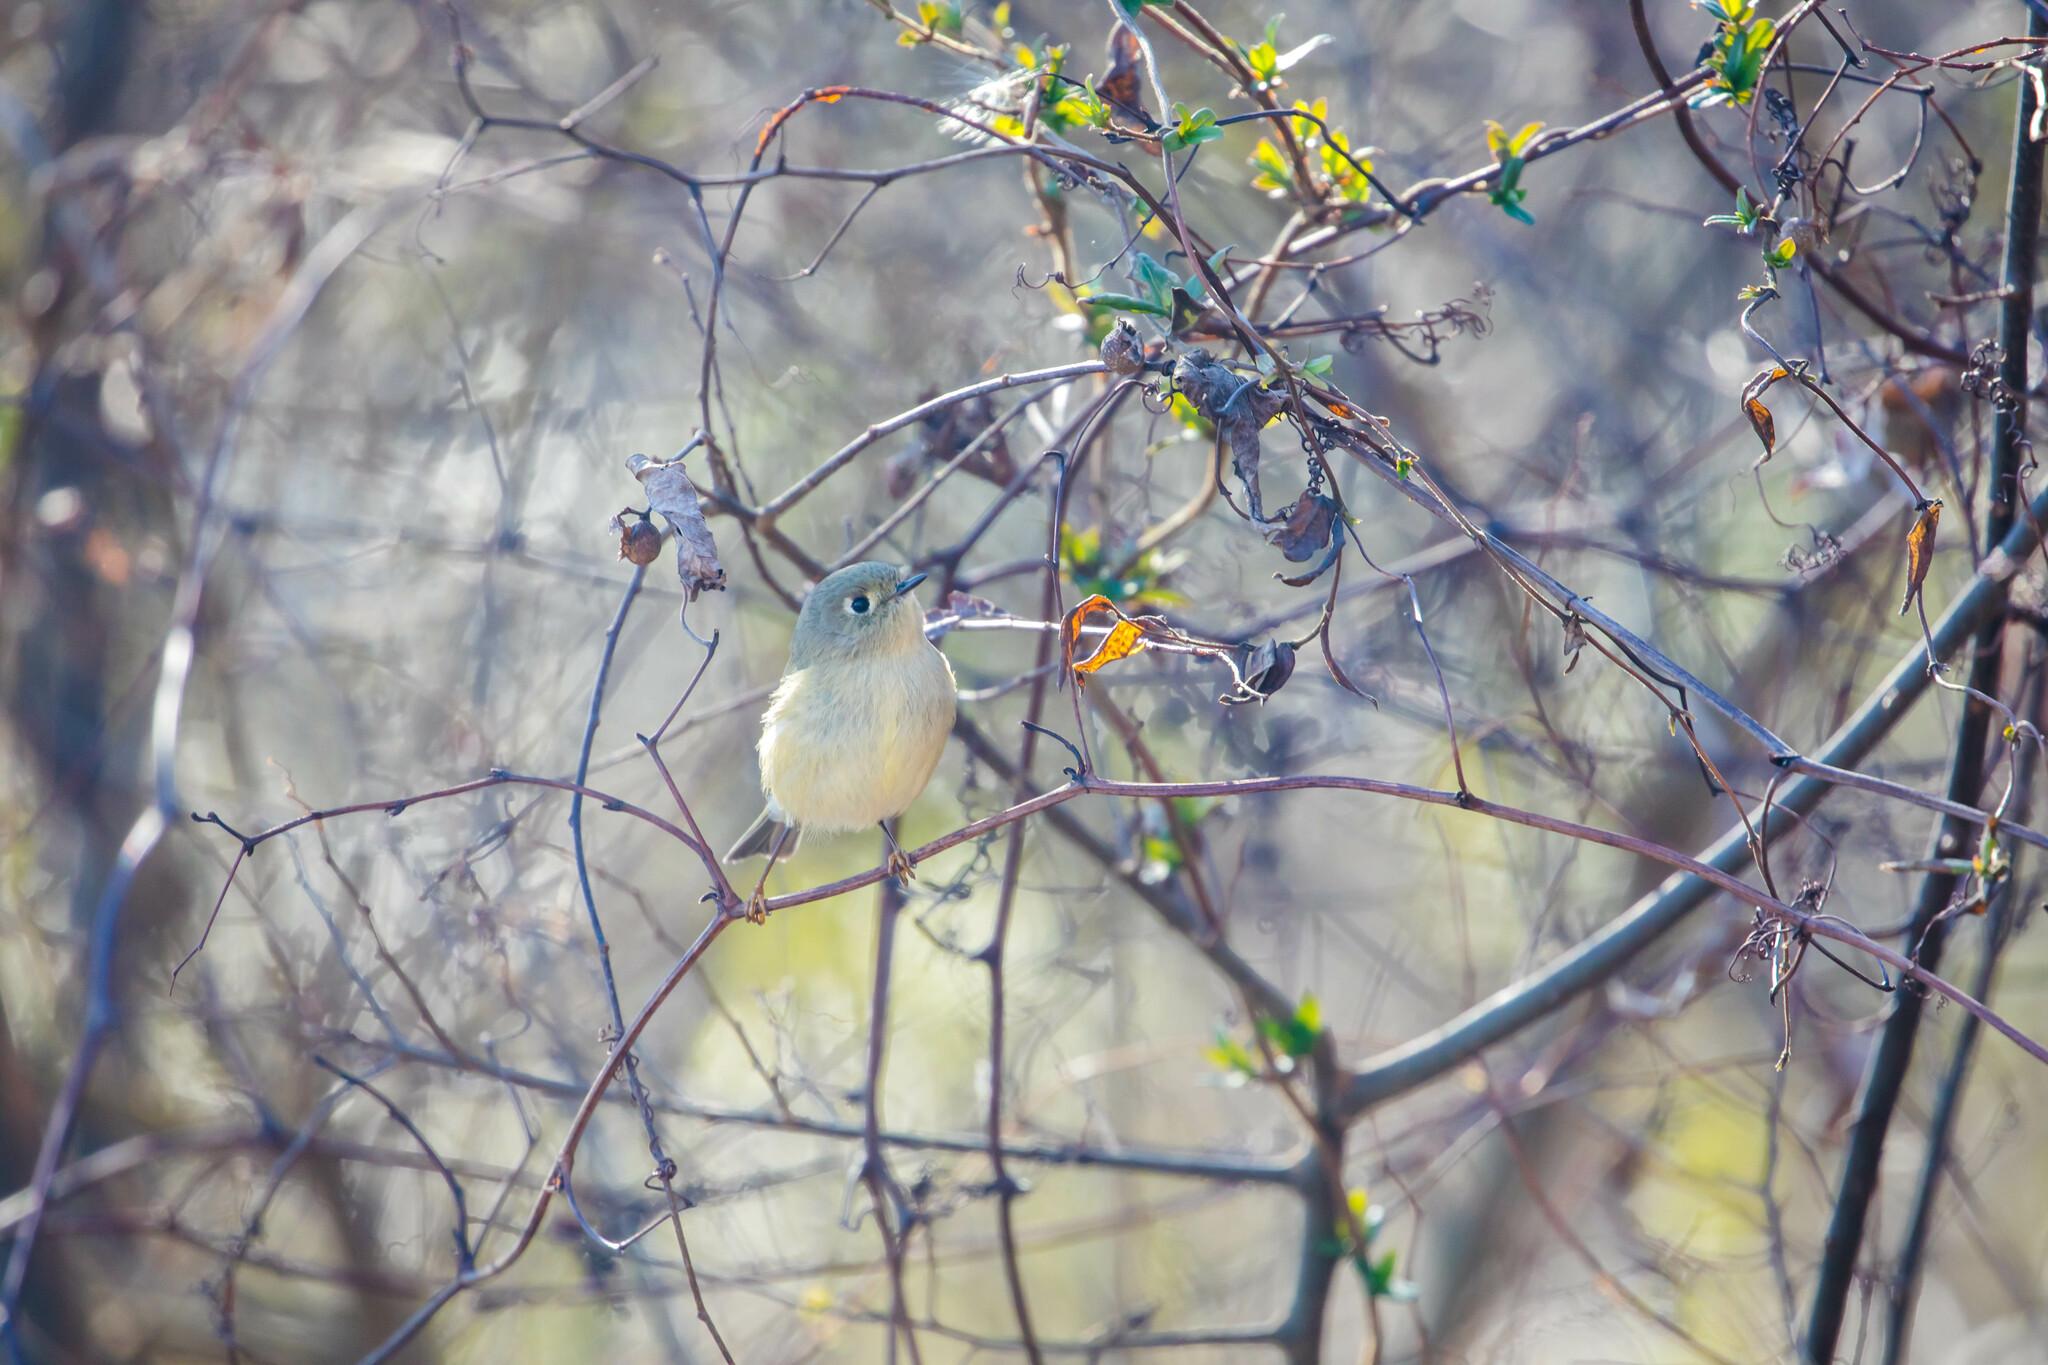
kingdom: Animalia
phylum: Chordata
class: Aves
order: Passeriformes
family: Regulidae
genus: Regulus
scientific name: Regulus calendula
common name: Ruby-crowned kinglet
